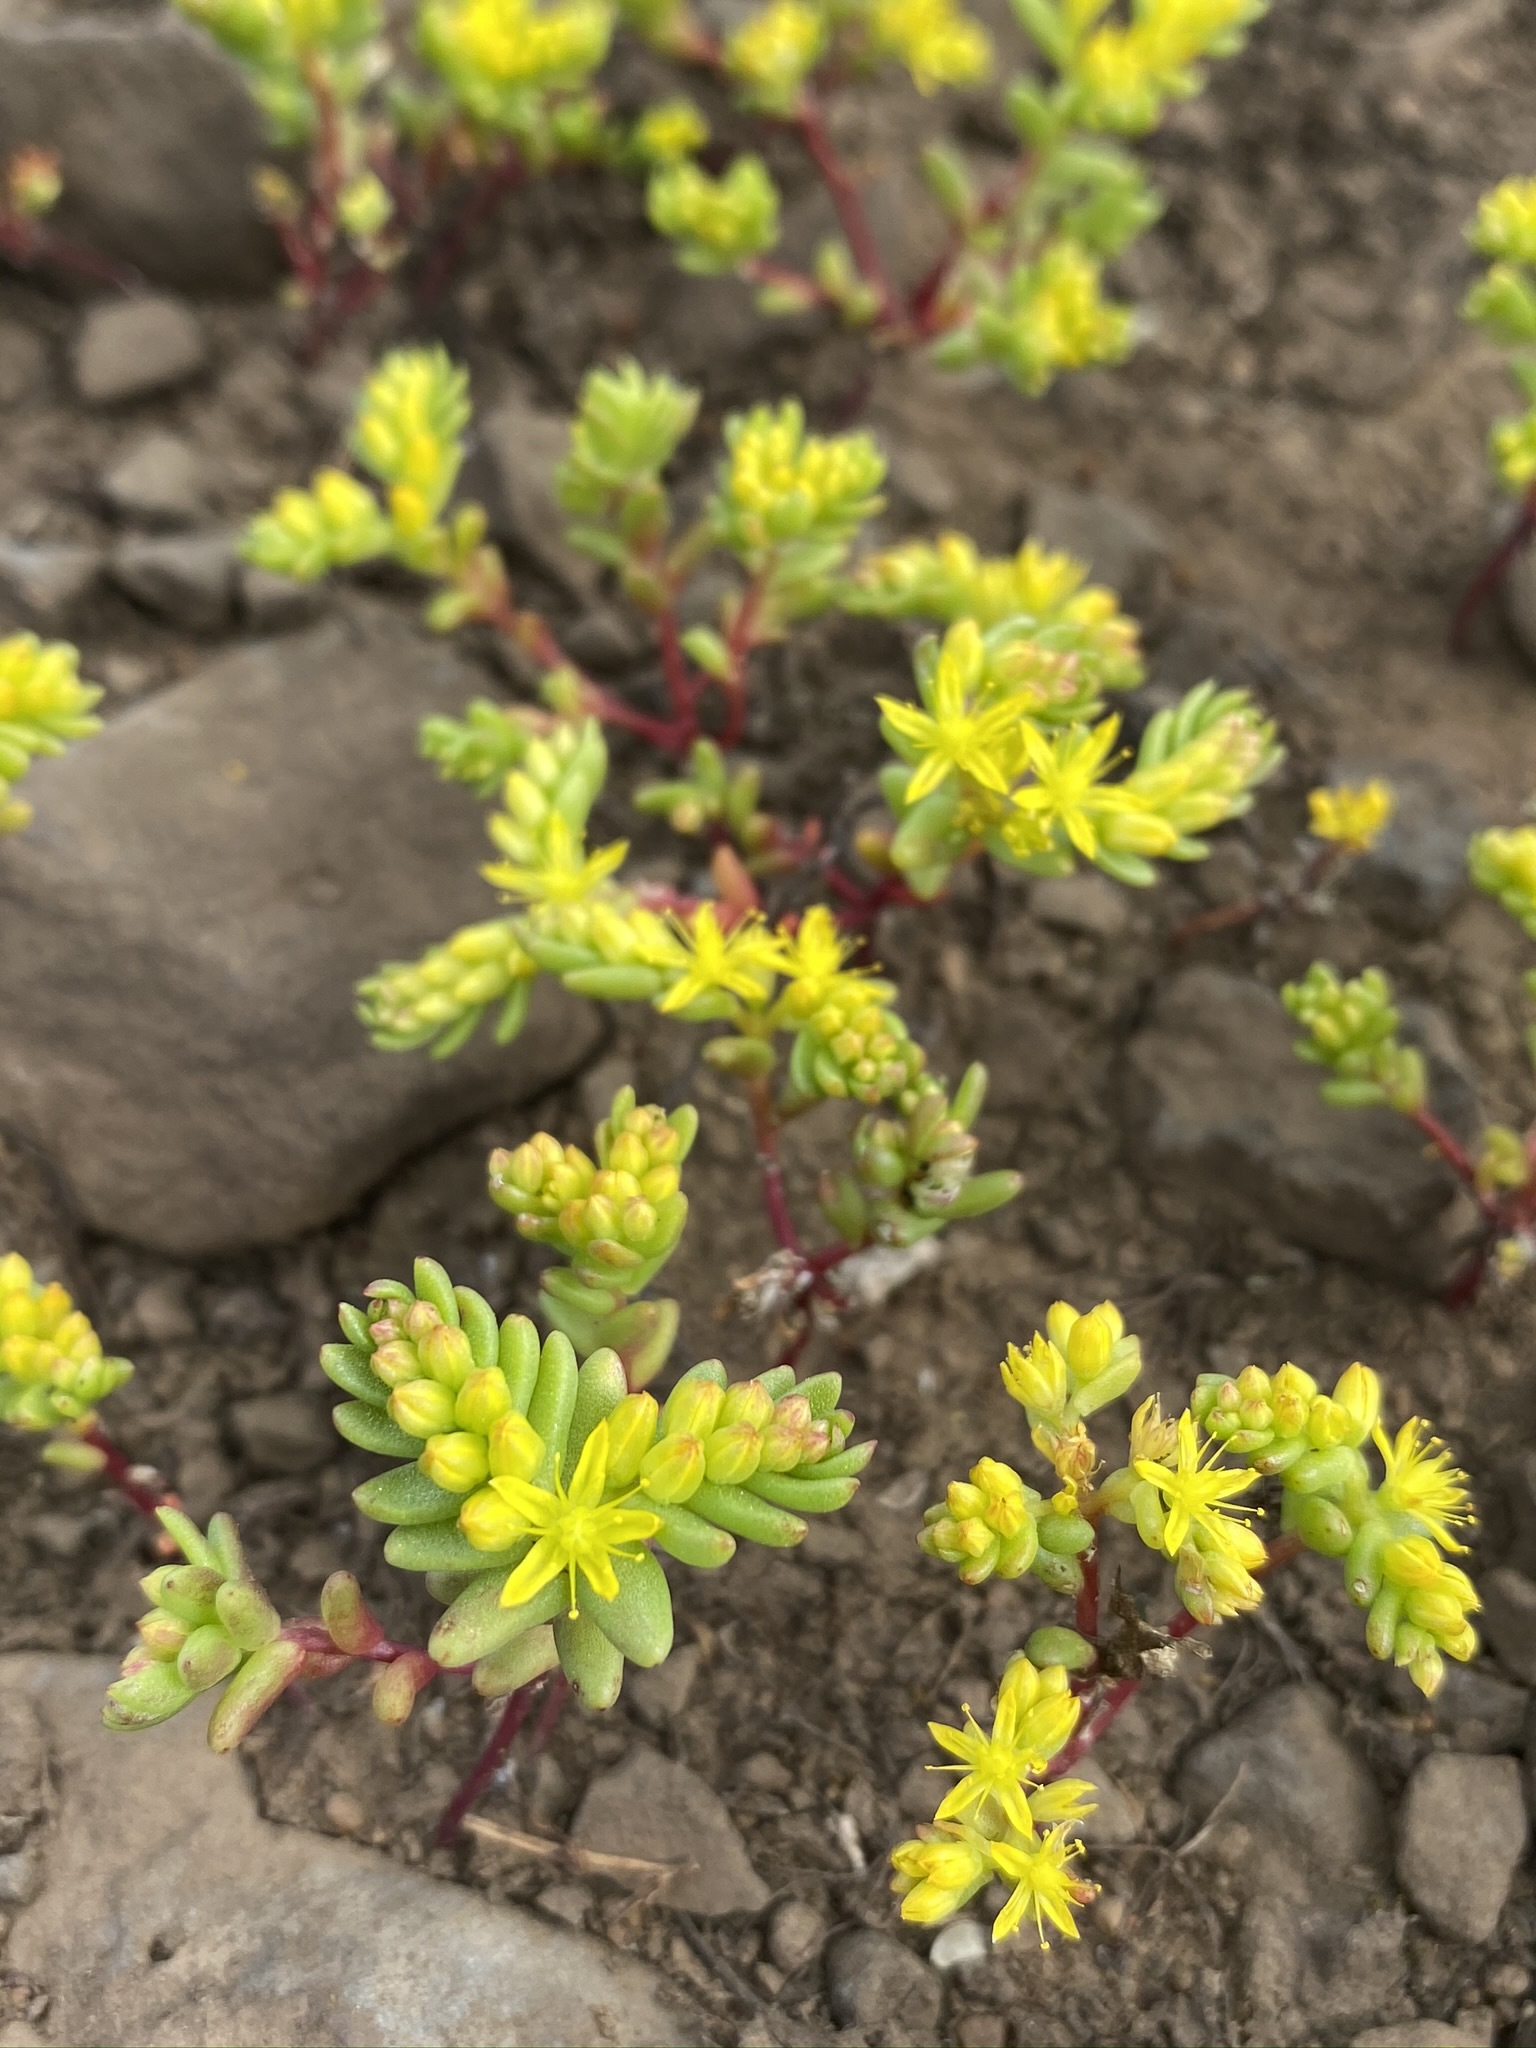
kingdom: Plantae
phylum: Tracheophyta
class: Magnoliopsida
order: Saxifragales
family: Crassulaceae
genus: Sedella
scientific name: Sedella pumila
